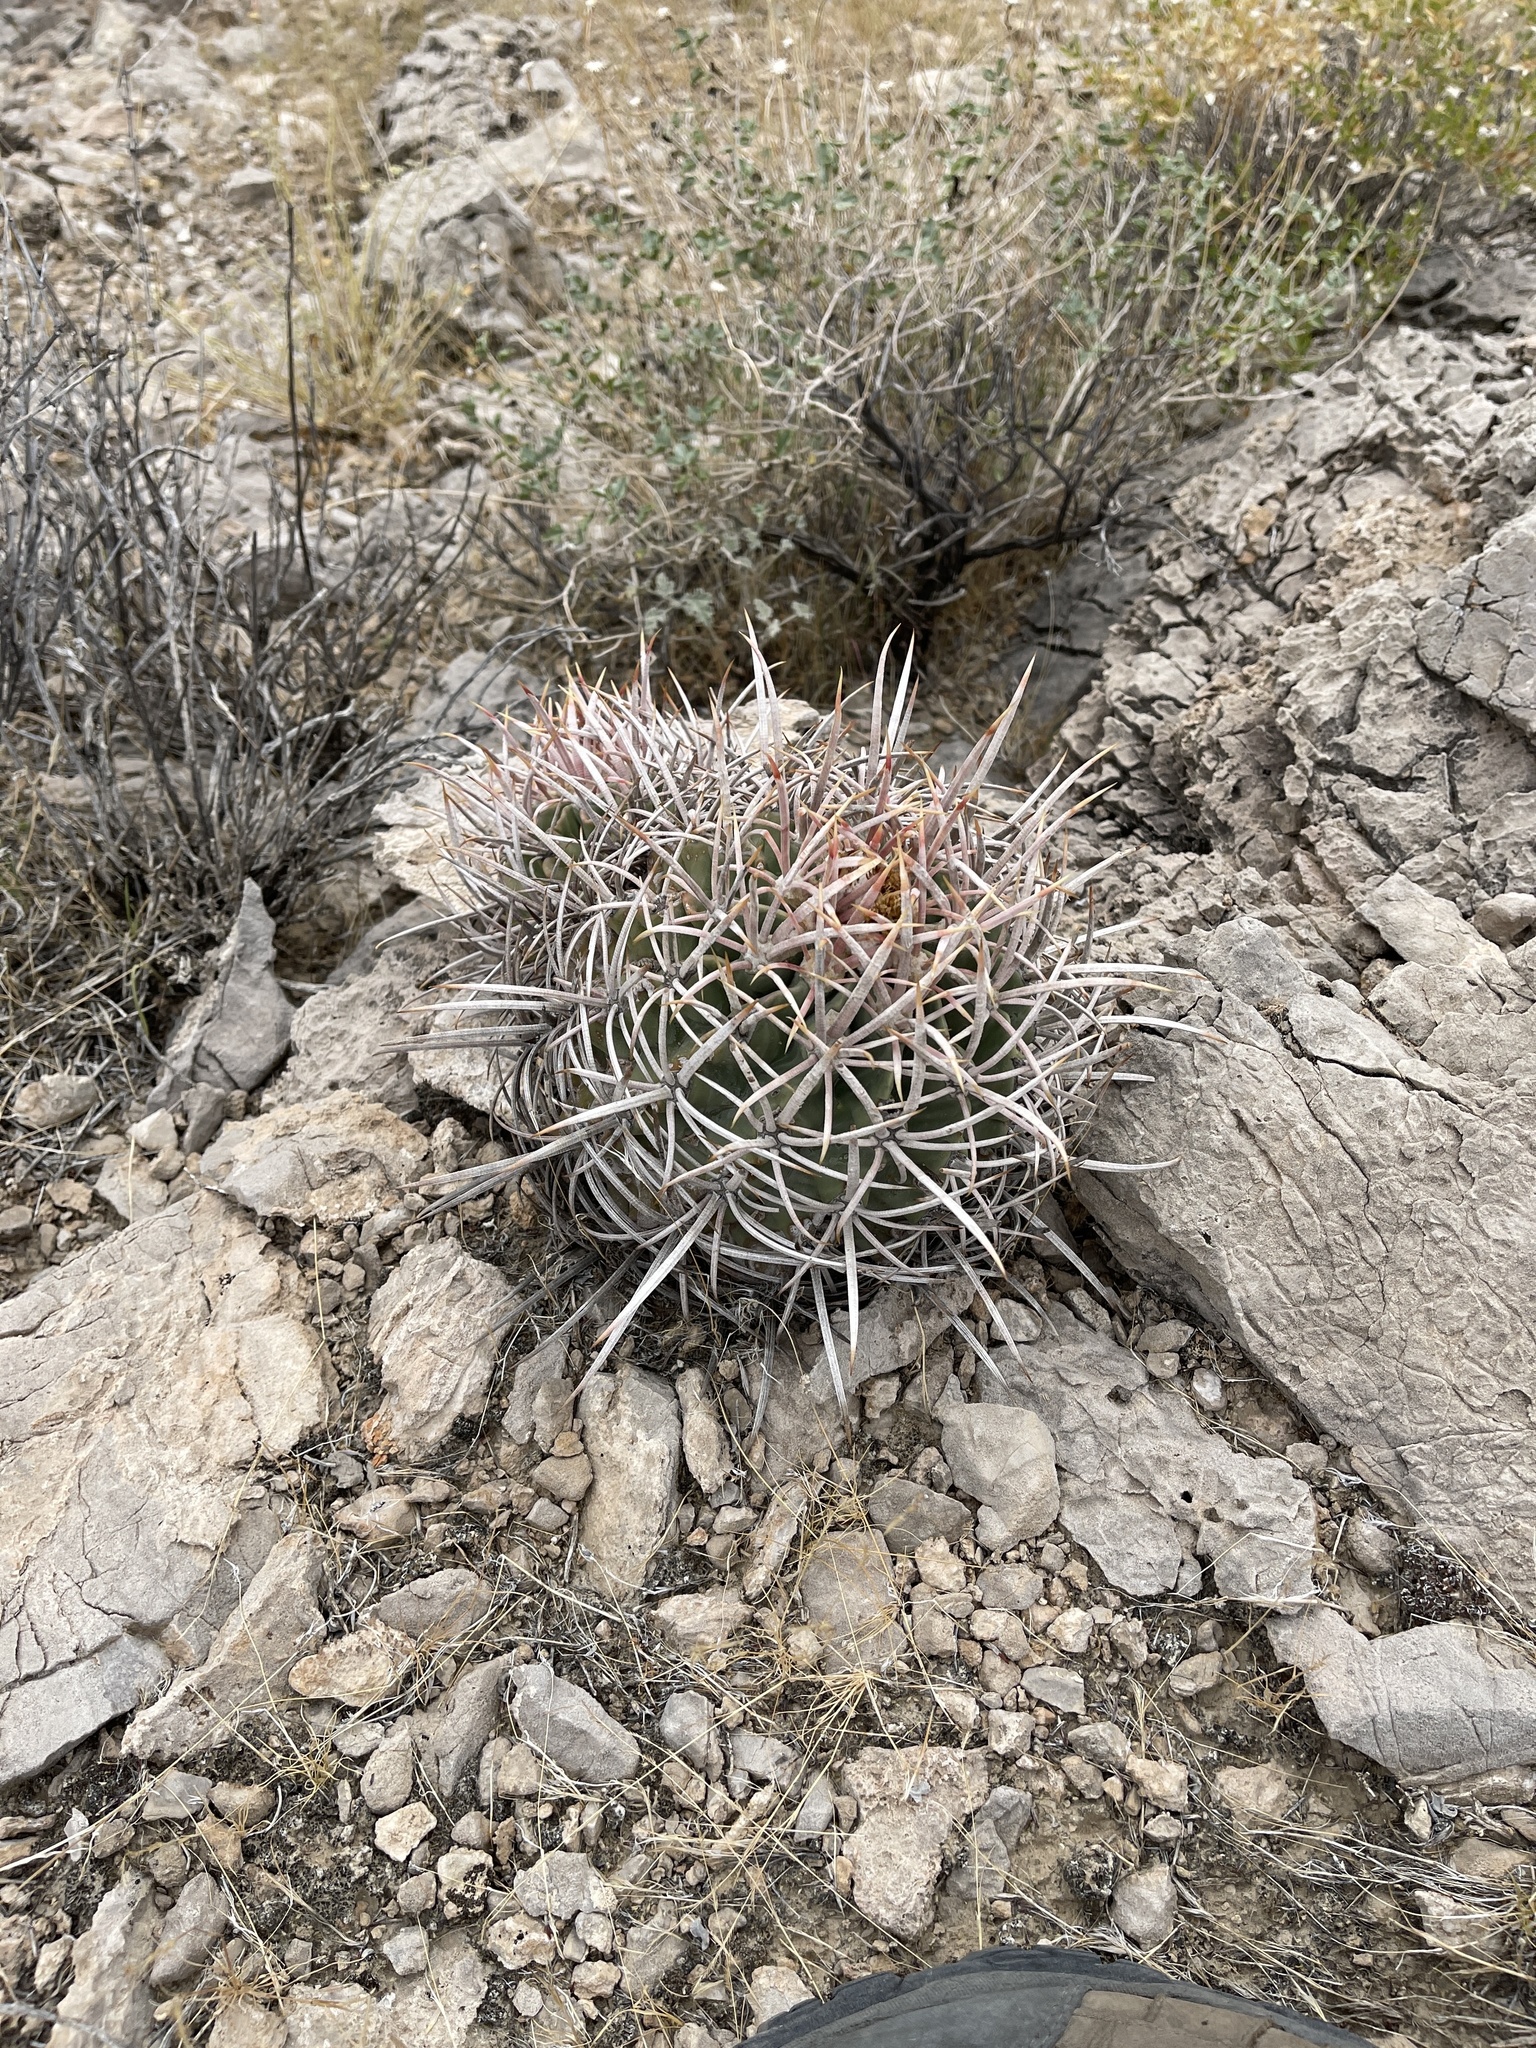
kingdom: Plantae
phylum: Tracheophyta
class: Magnoliopsida
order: Caryophyllales
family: Cactaceae
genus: Echinocactus
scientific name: Echinocactus polycephalus
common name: Cottontop cactus
